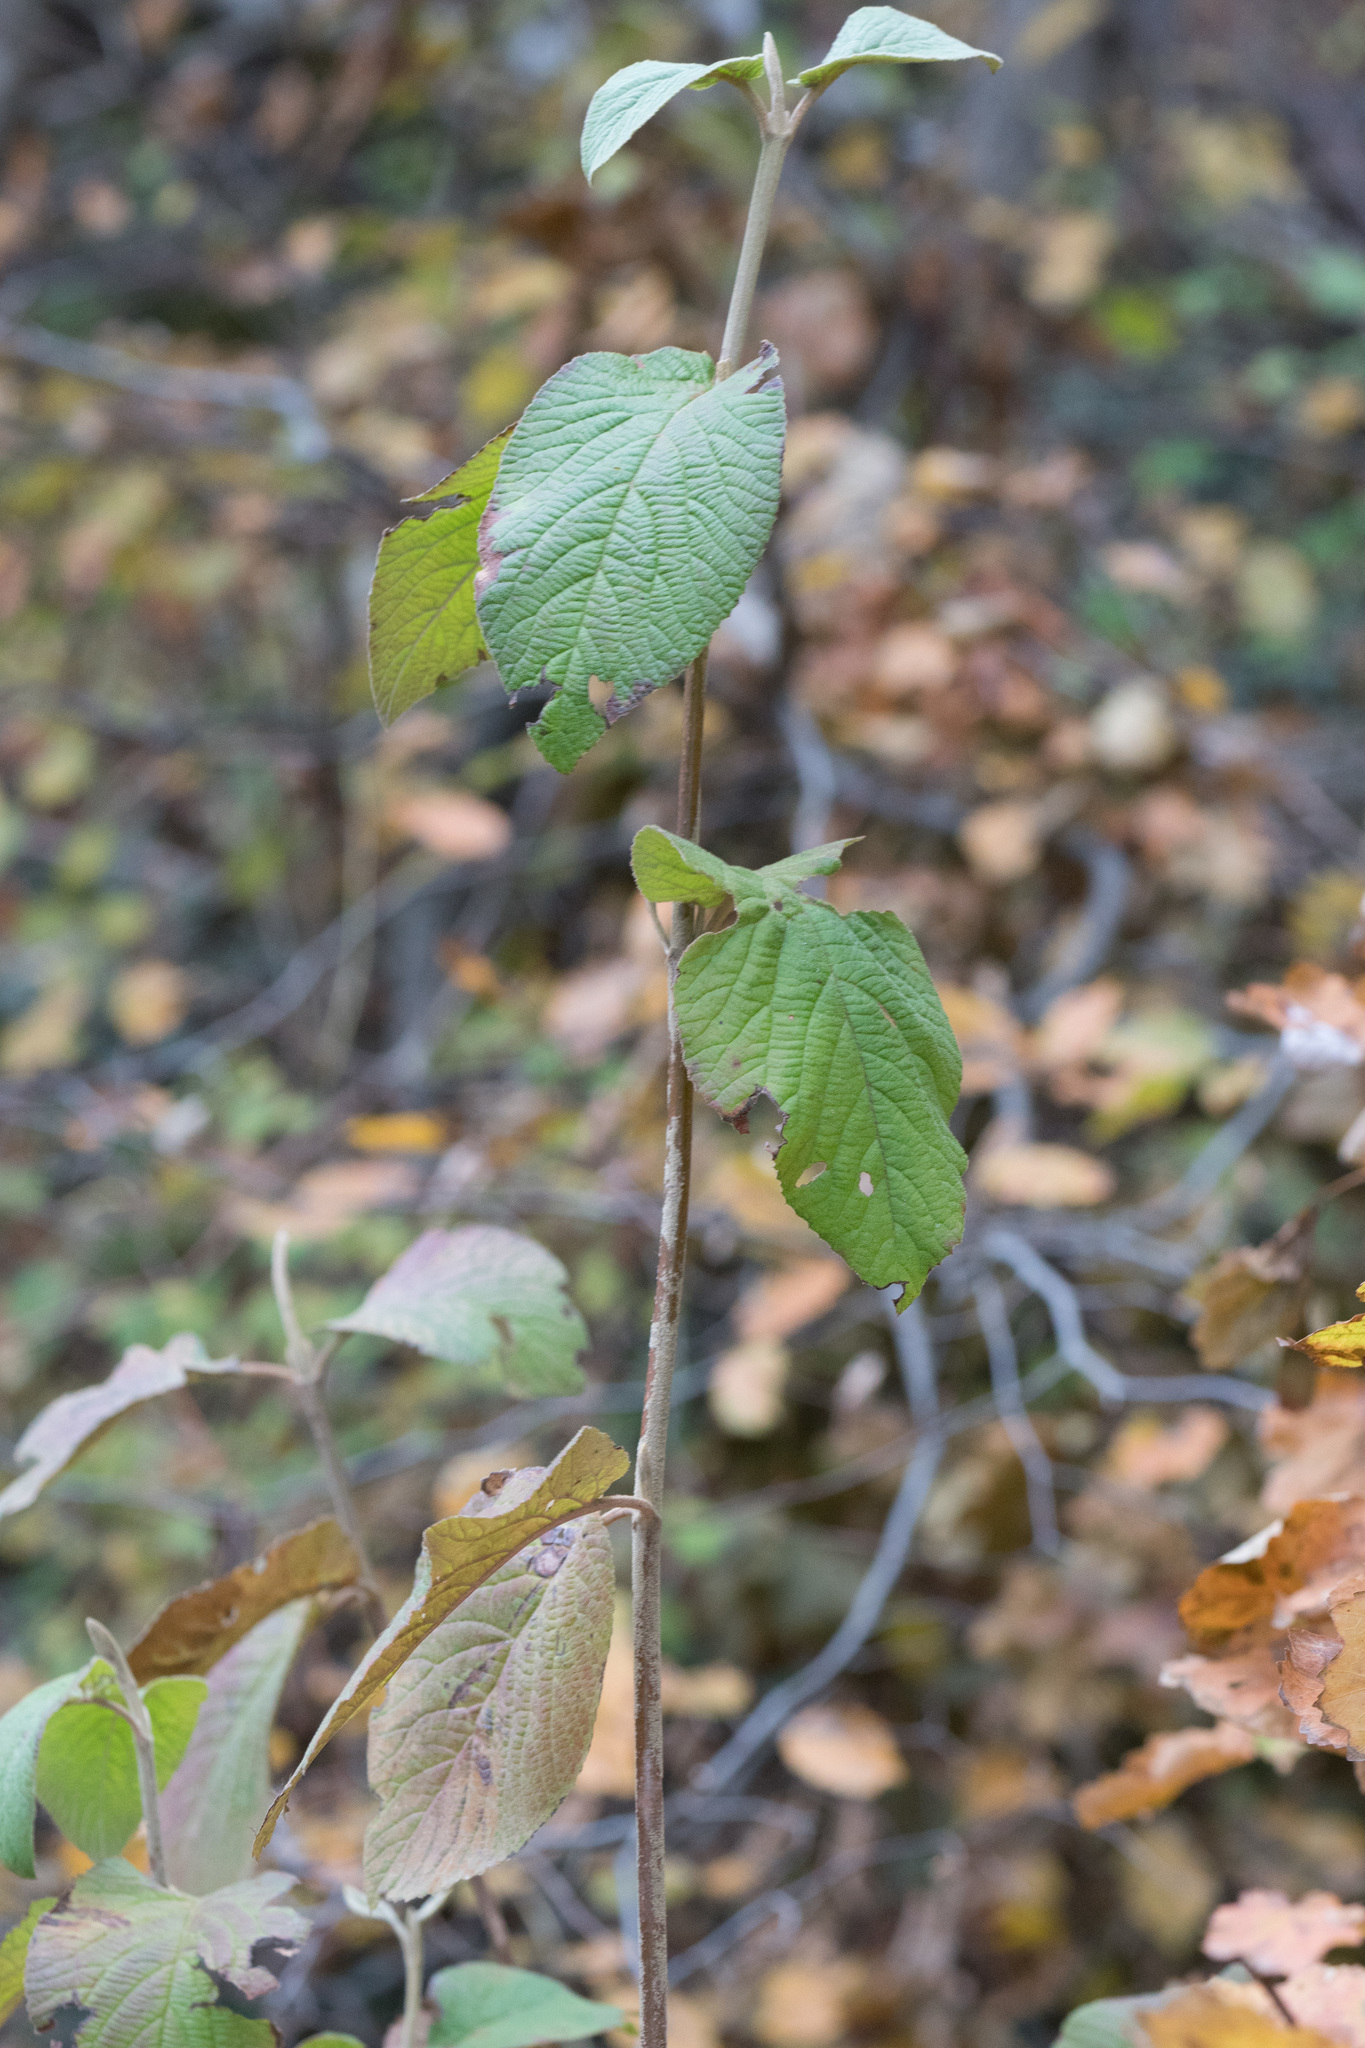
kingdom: Plantae
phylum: Tracheophyta
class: Magnoliopsida
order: Dipsacales
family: Viburnaceae
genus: Viburnum
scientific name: Viburnum lantana
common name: Wayfaring tree
